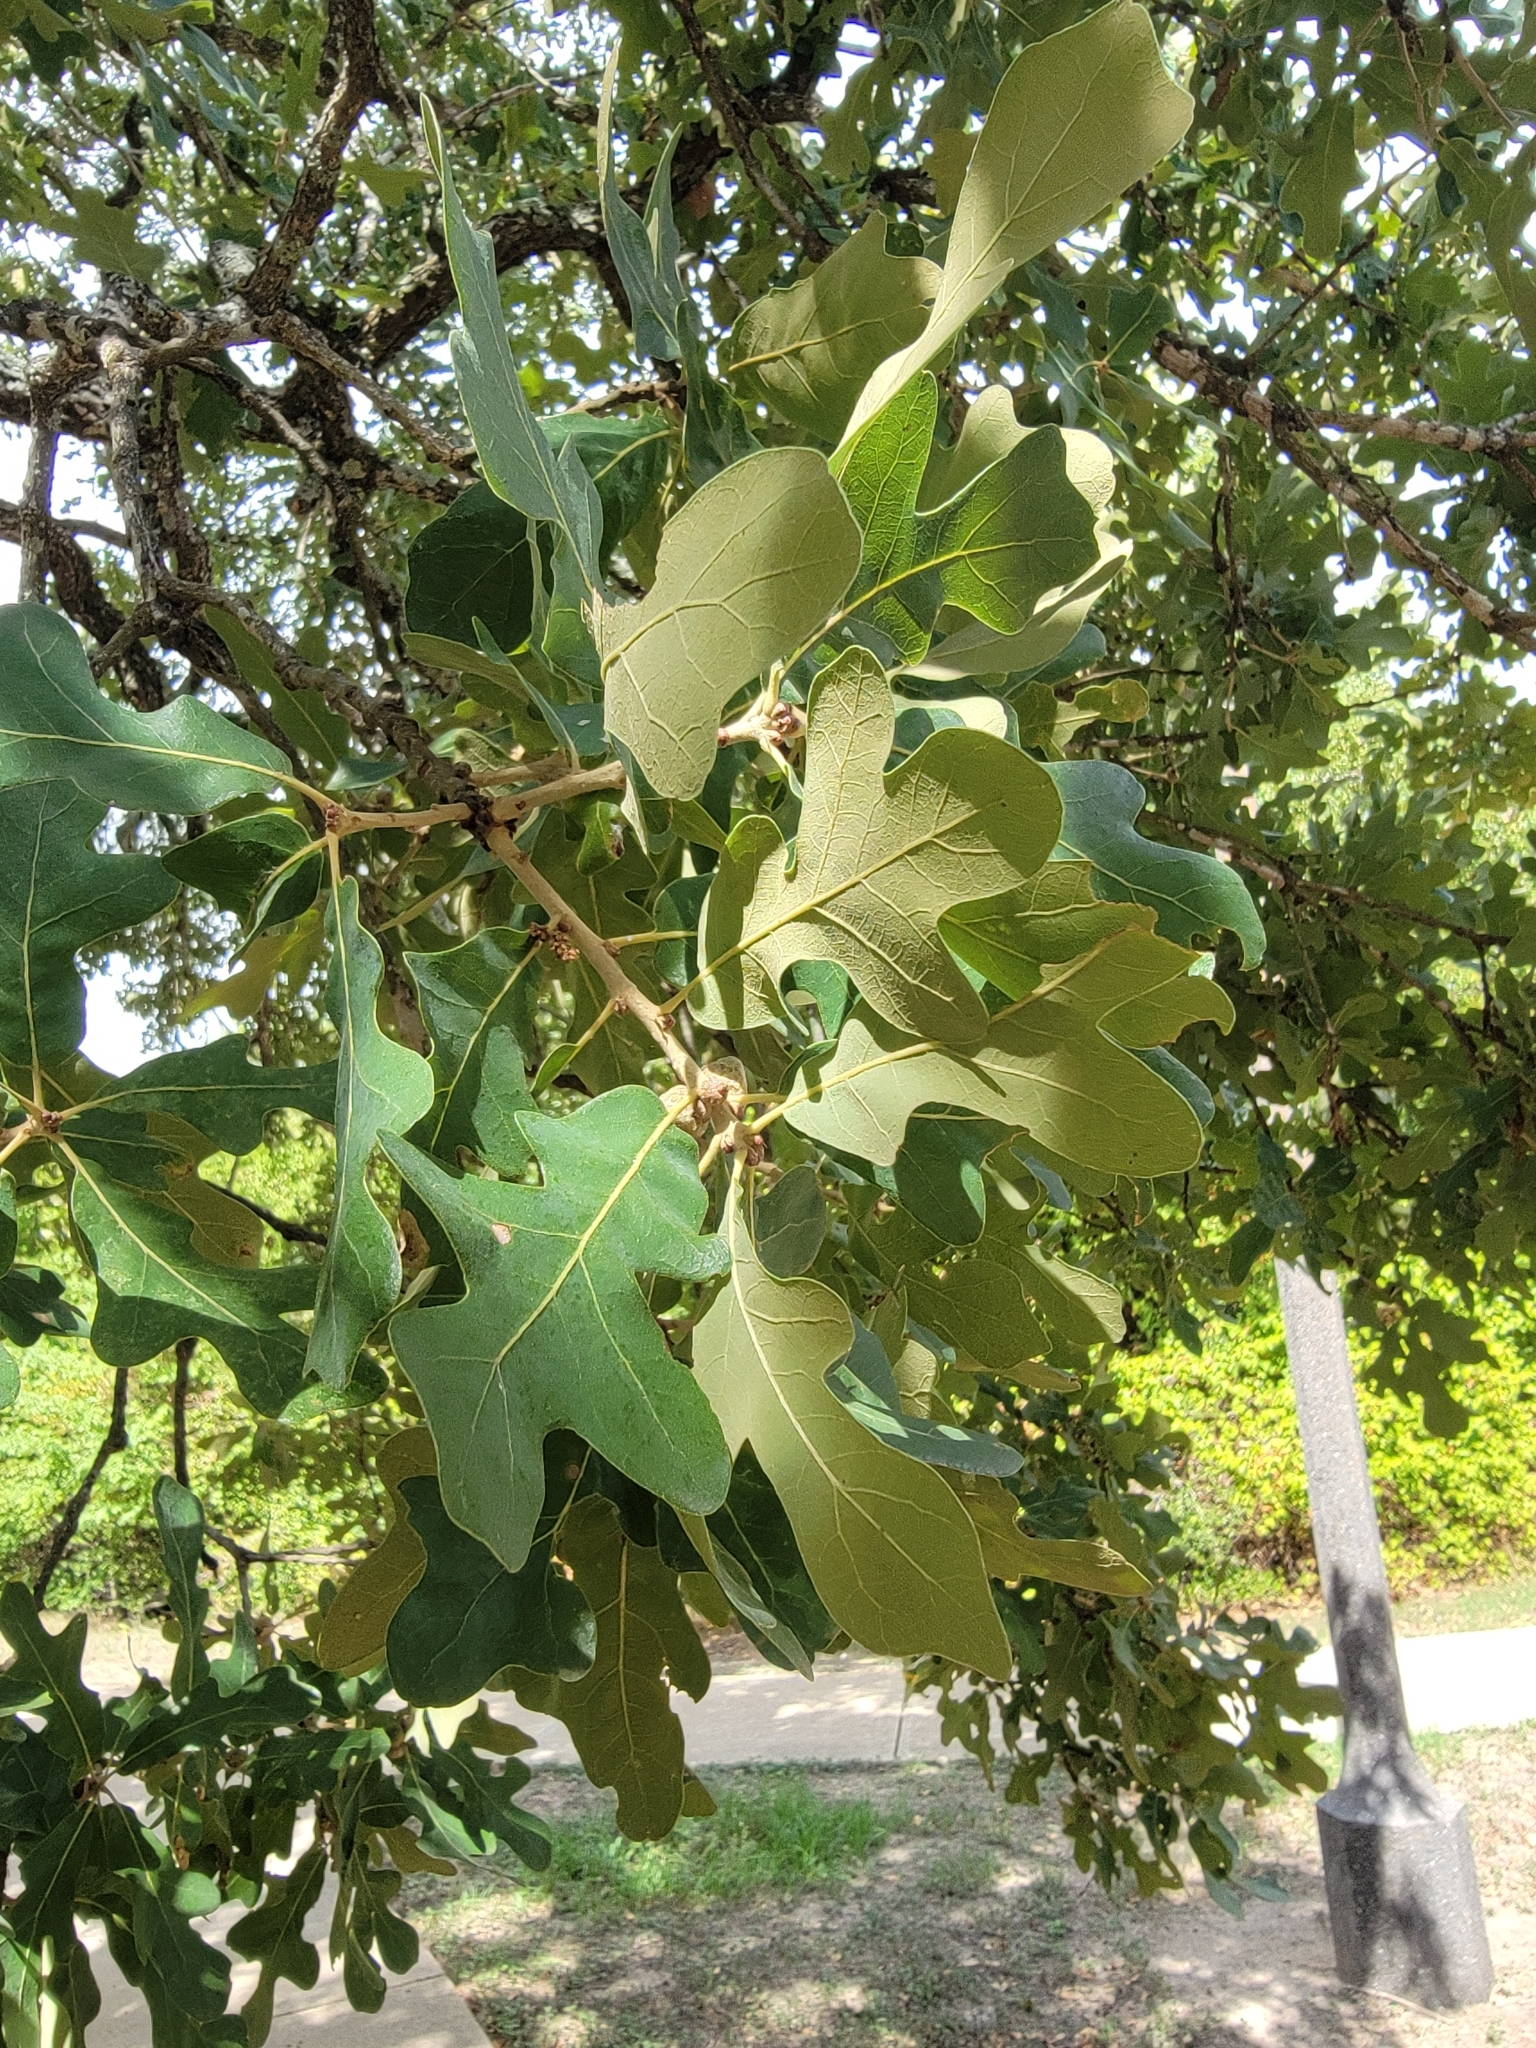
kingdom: Plantae
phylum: Tracheophyta
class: Magnoliopsida
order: Fagales
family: Fagaceae
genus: Quercus
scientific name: Quercus stellata
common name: Post oak
